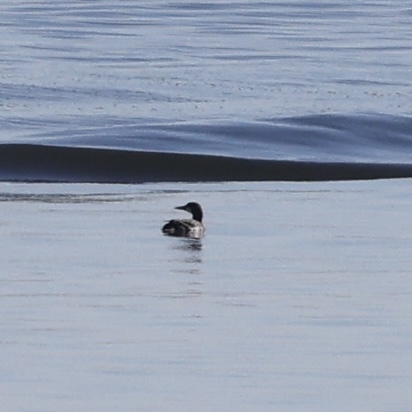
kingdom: Animalia
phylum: Chordata
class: Aves
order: Gaviiformes
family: Gaviidae
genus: Gavia
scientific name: Gavia immer
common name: Common loon
